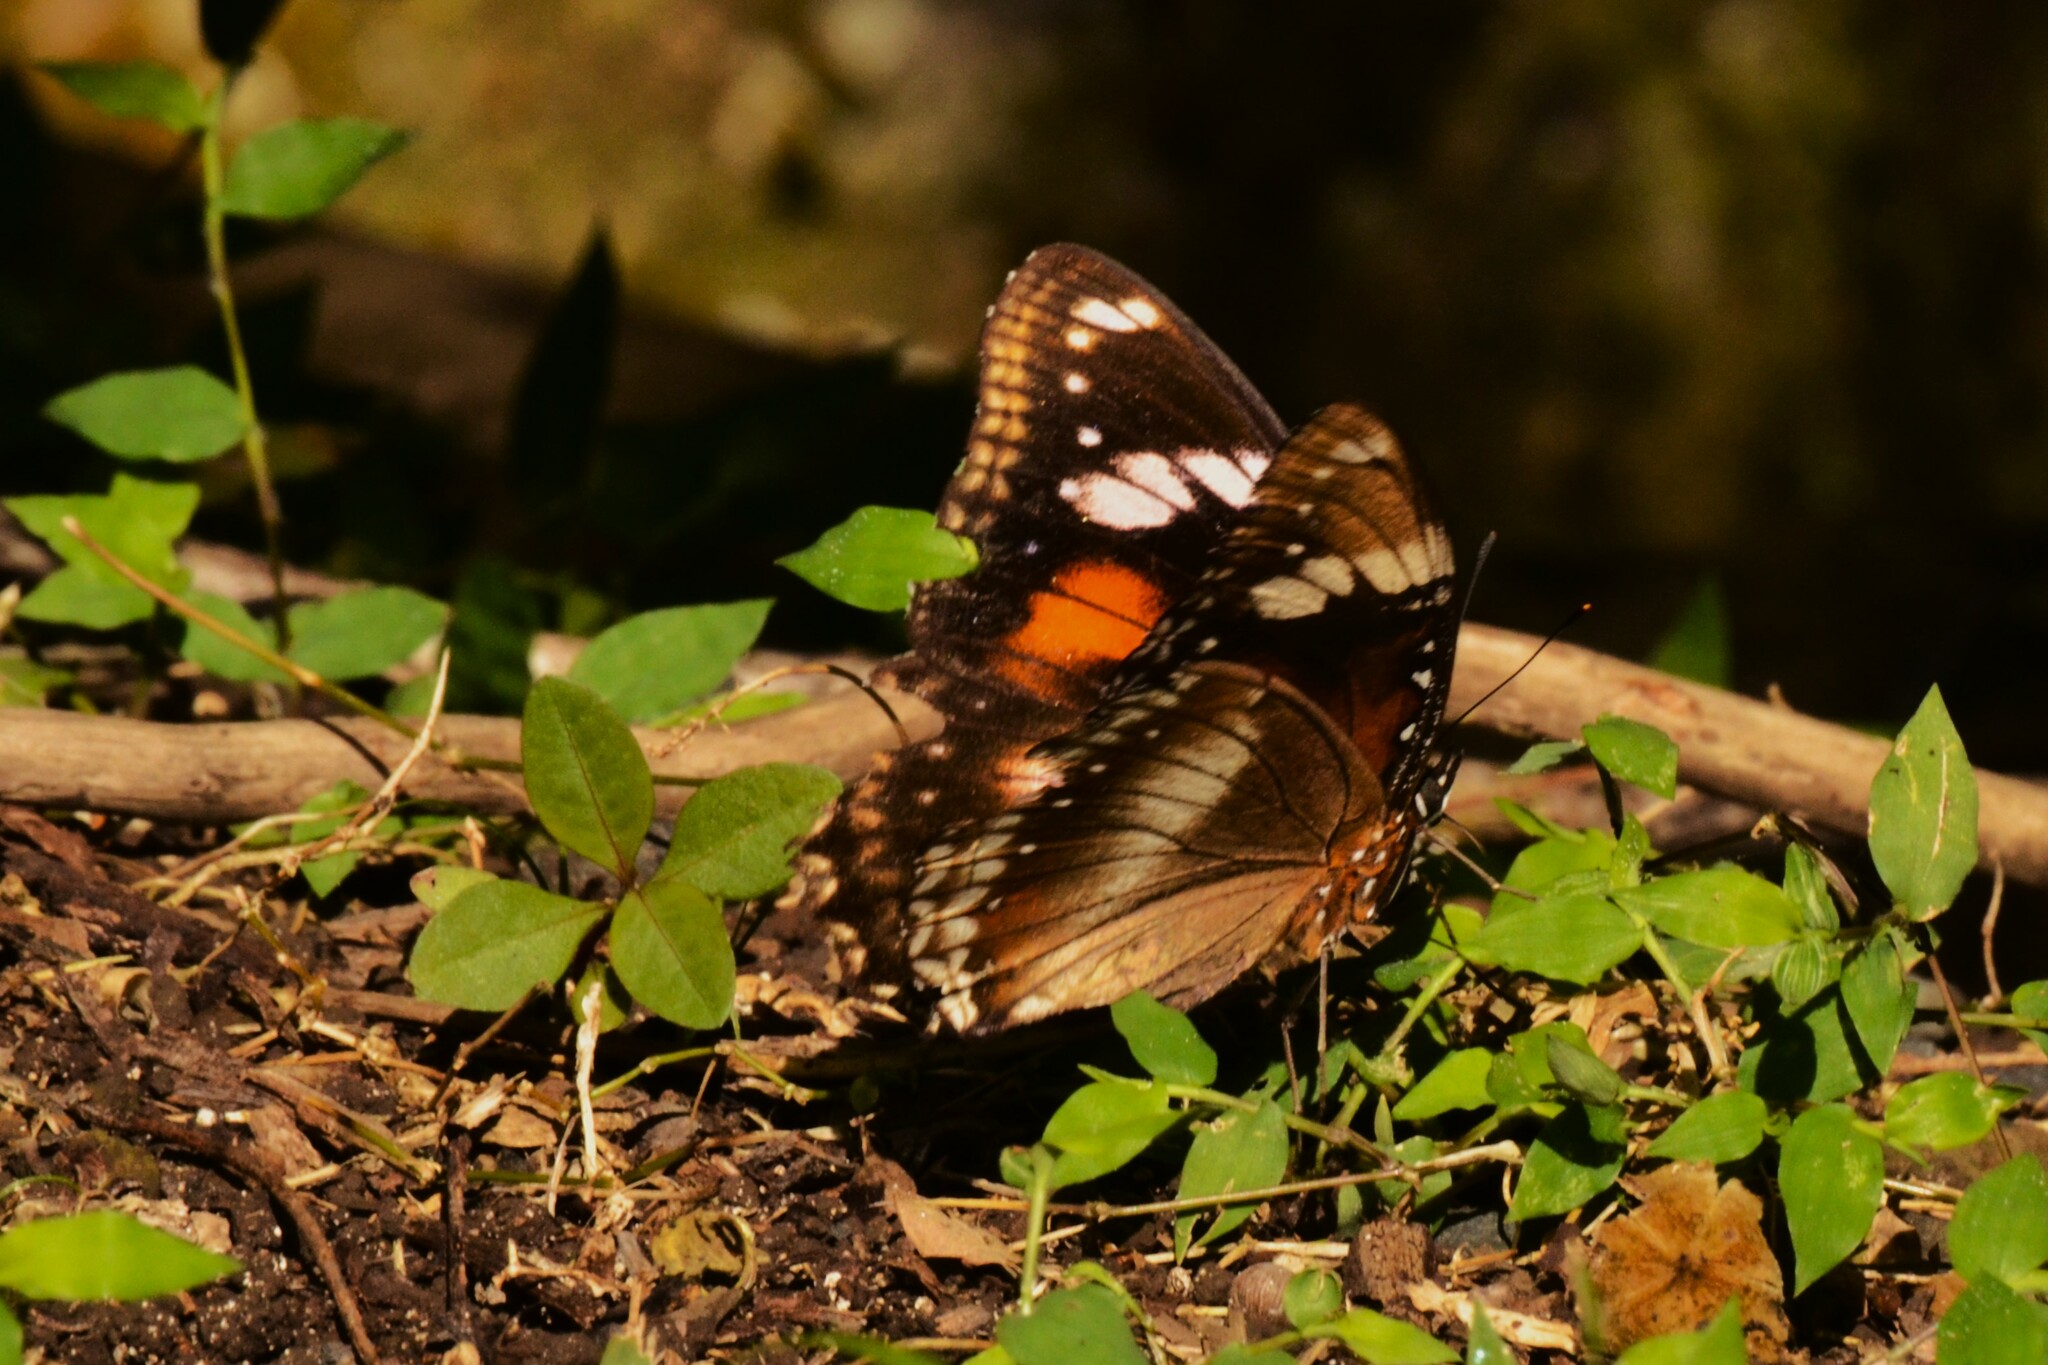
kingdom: Animalia
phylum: Arthropoda
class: Insecta
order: Lepidoptera
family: Nymphalidae
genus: Hypolimnas
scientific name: Hypolimnas bolina
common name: Great eggfly
